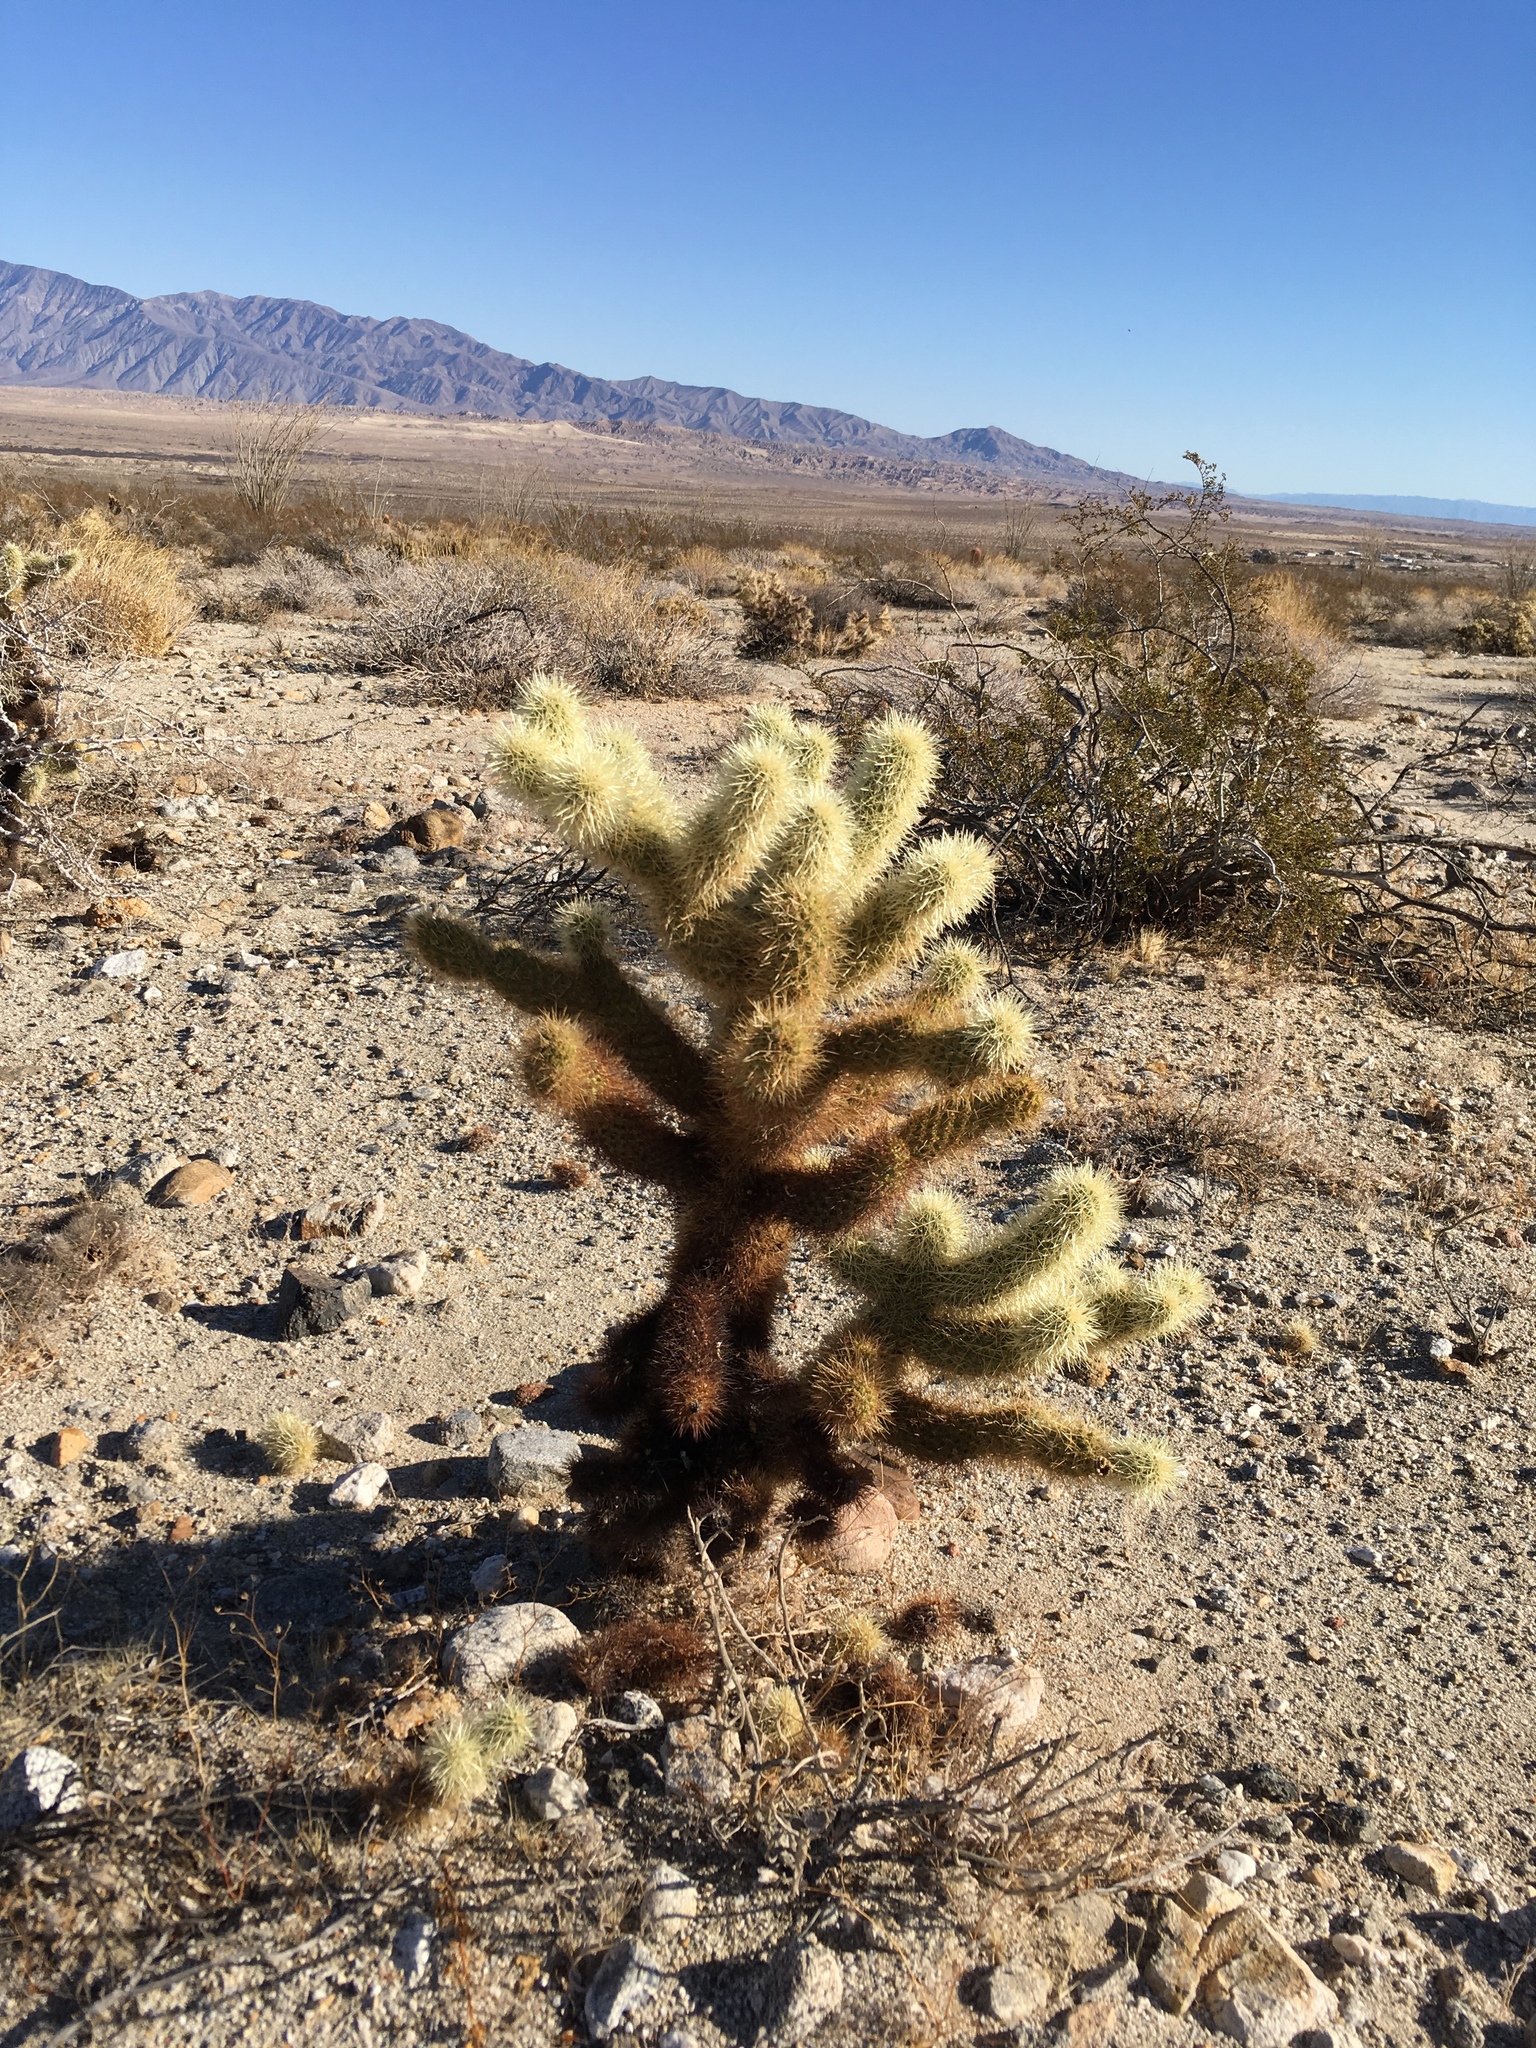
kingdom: Plantae
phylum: Tracheophyta
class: Magnoliopsida
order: Caryophyllales
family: Cactaceae
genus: Cylindropuntia
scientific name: Cylindropuntia fosbergii
